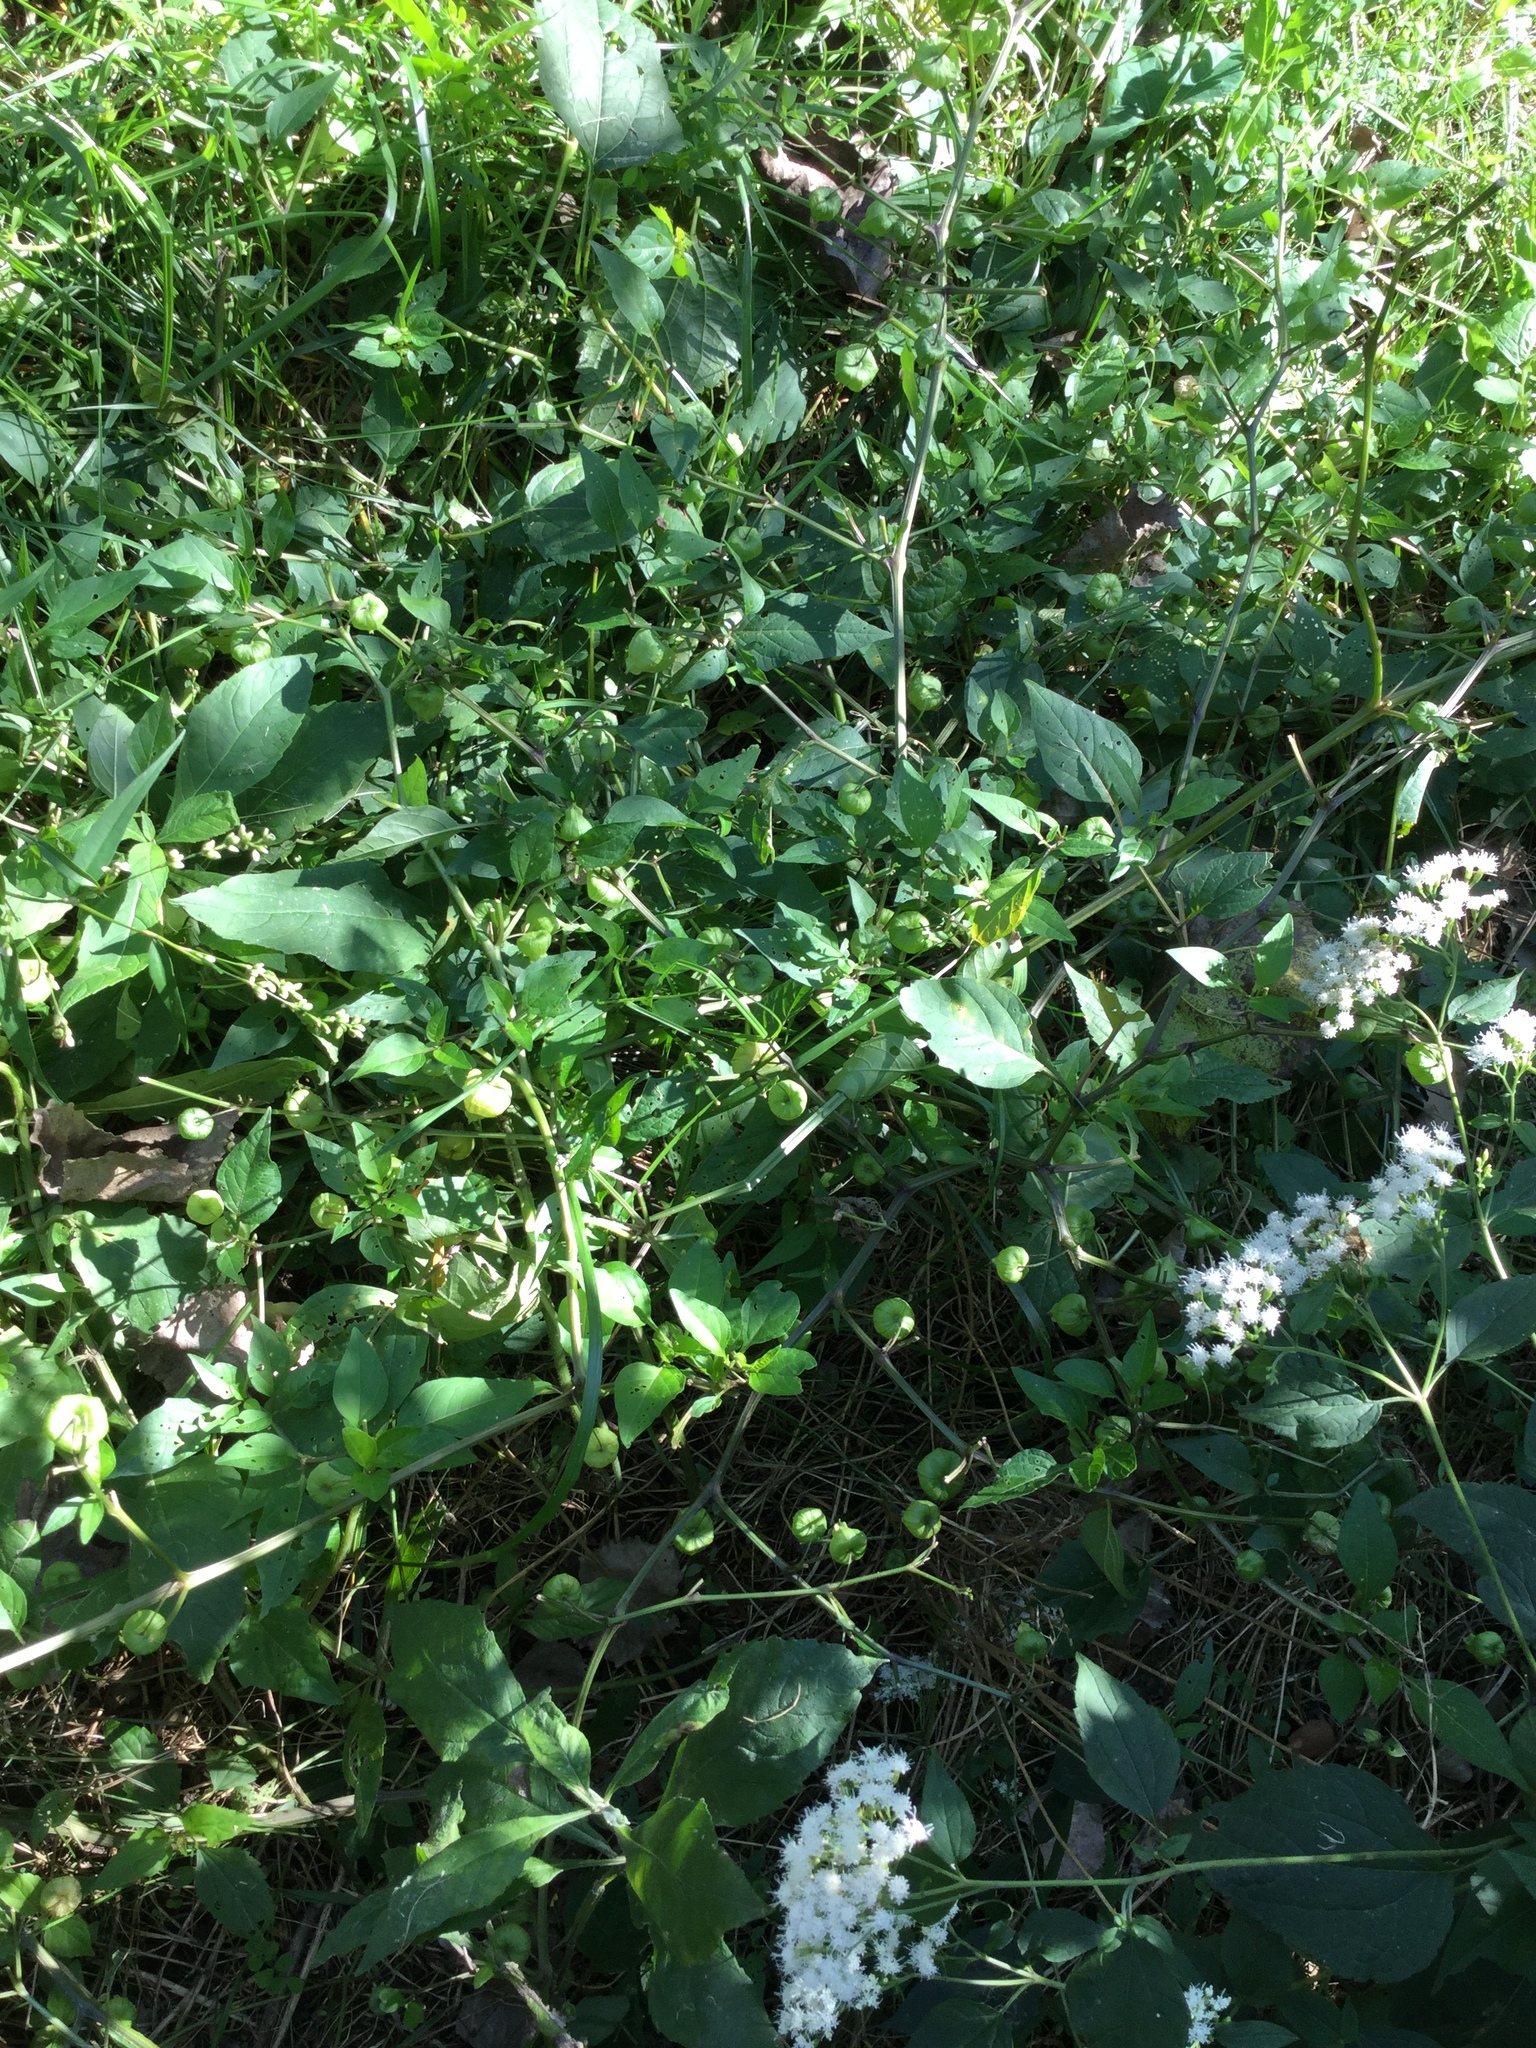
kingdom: Plantae
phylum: Tracheophyta
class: Magnoliopsida
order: Solanales
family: Solanaceae
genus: Physalis
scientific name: Physalis longifolia
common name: Common ground-cherry
